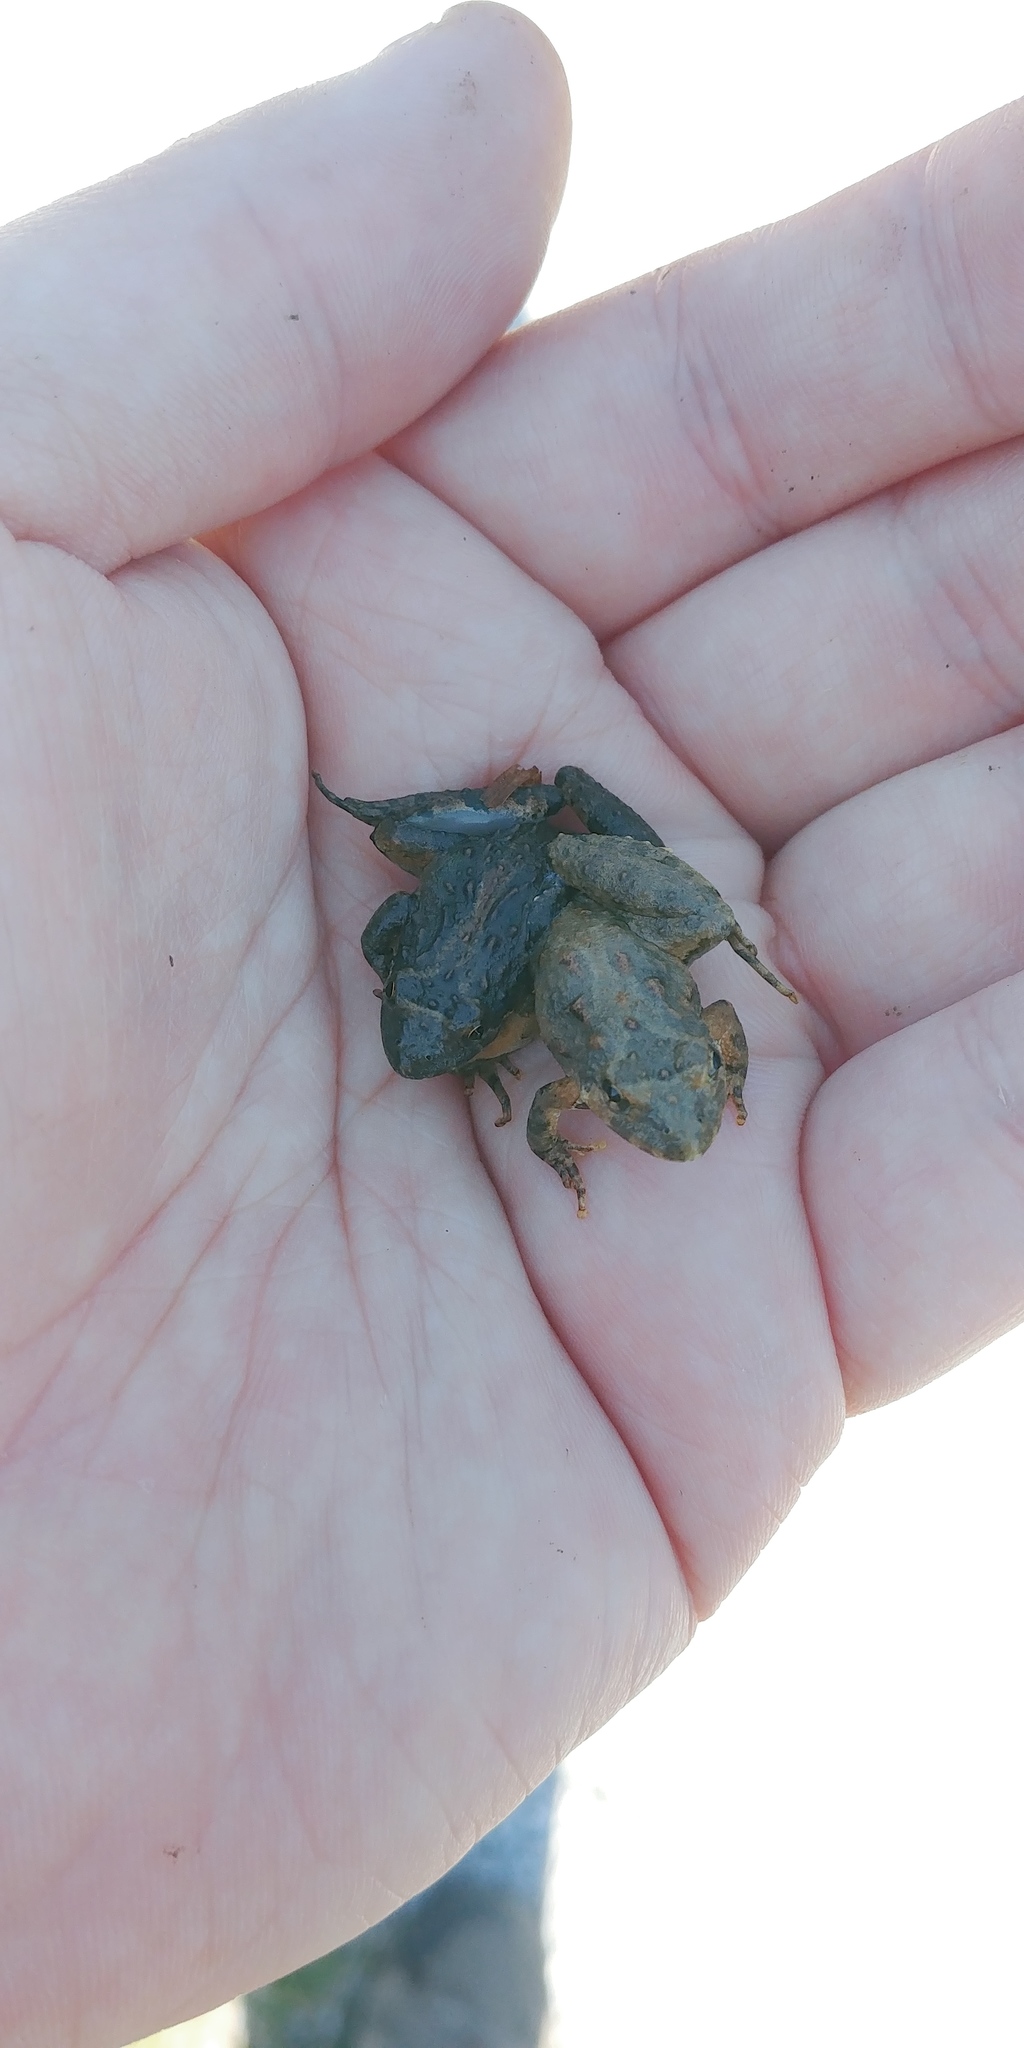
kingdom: Animalia
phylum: Chordata
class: Amphibia
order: Anura
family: Hylidae
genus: Acris
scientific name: Acris crepitans
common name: Northern cricket frog
